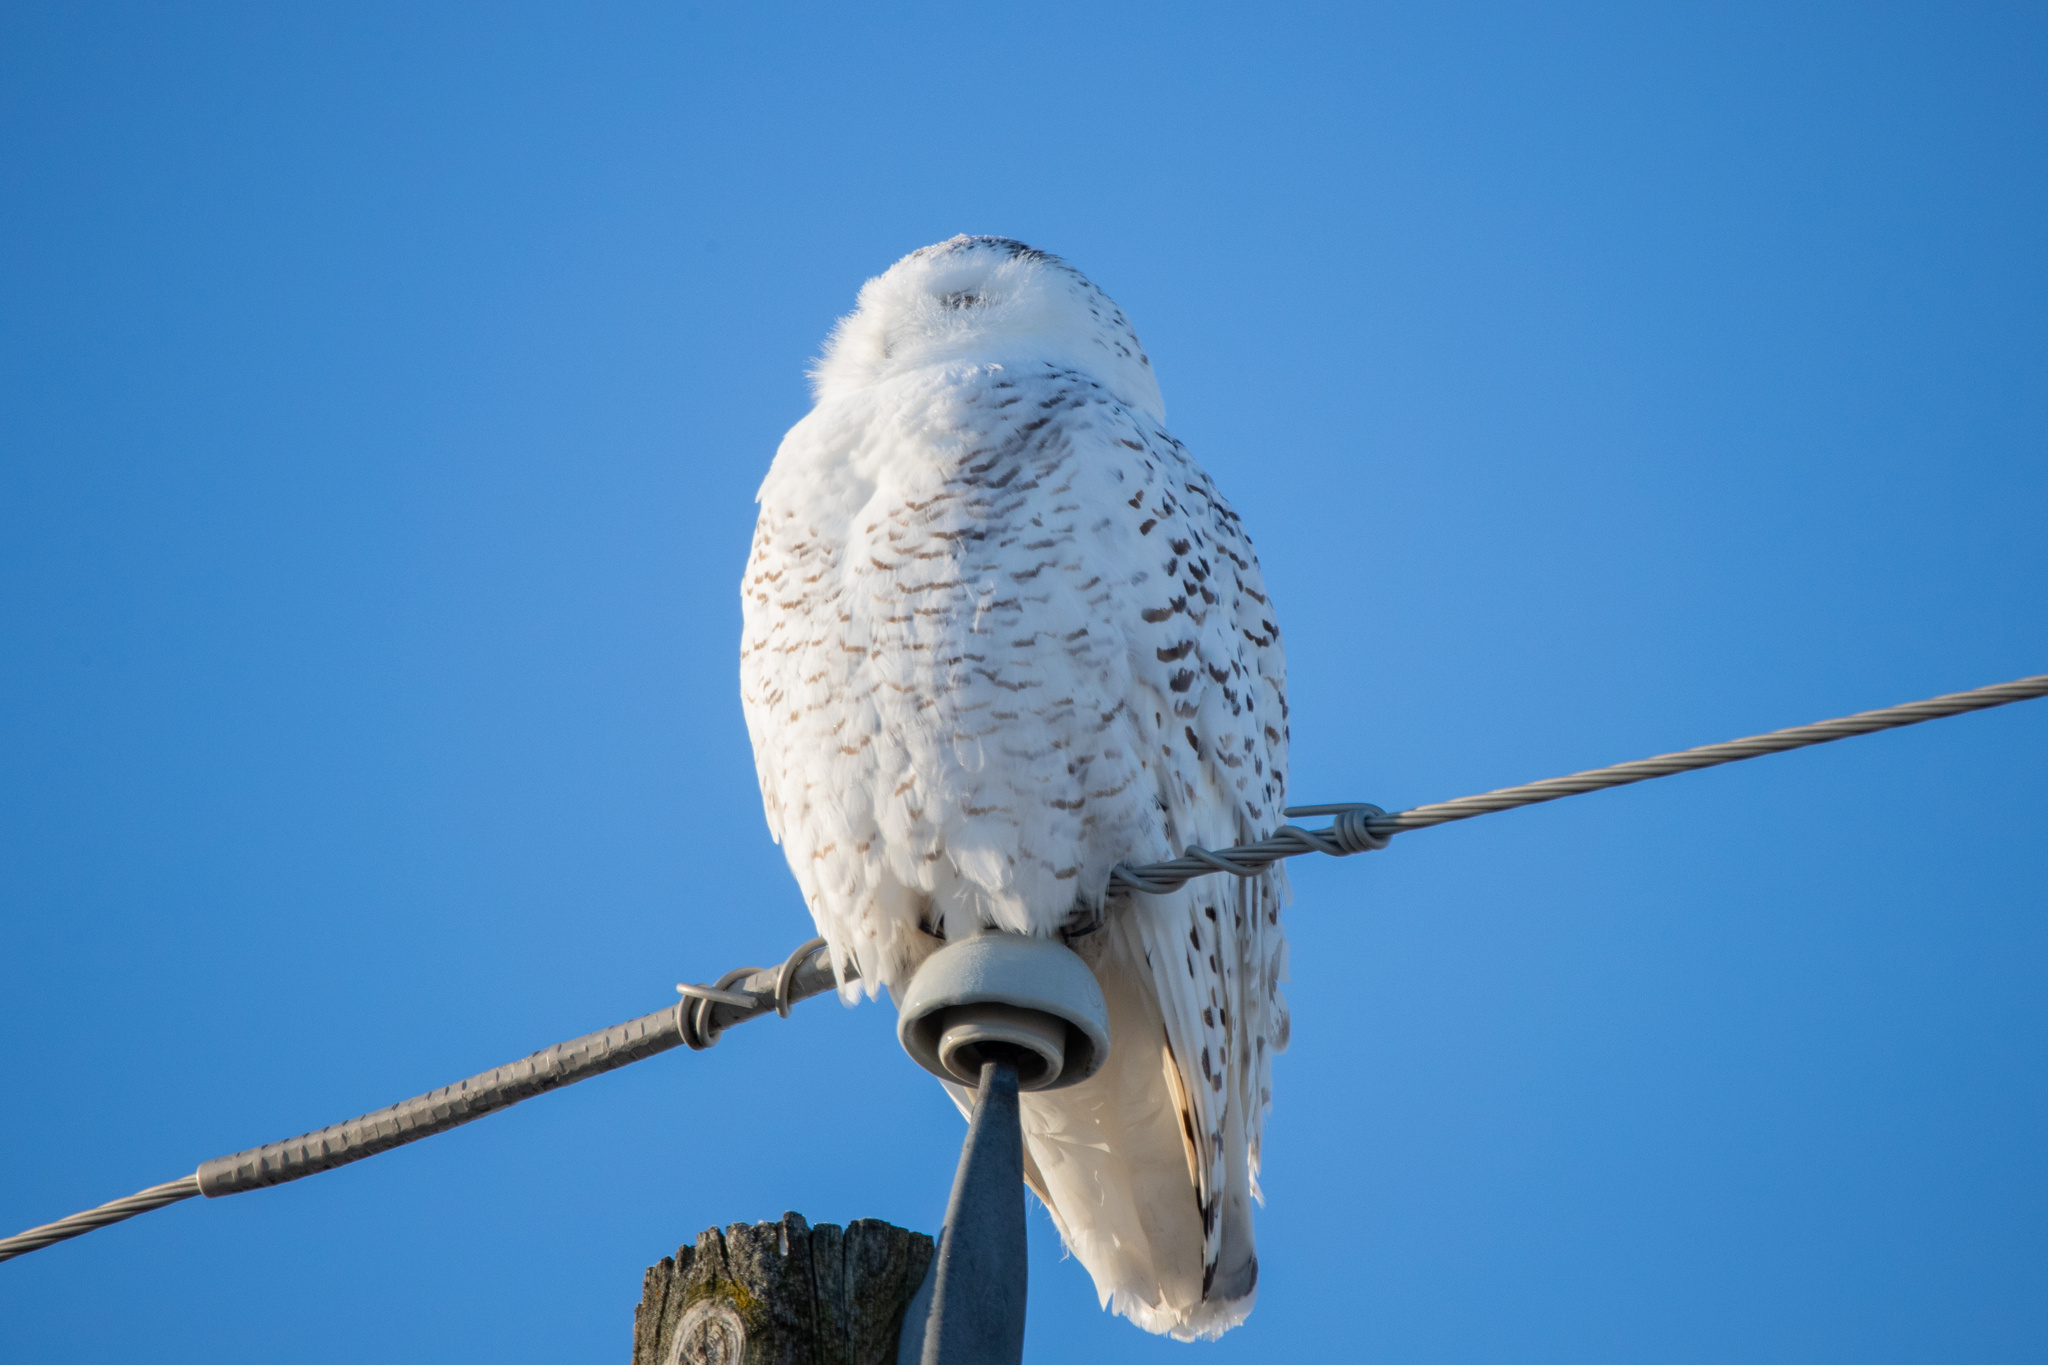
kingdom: Animalia
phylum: Chordata
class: Aves
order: Strigiformes
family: Strigidae
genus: Bubo
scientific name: Bubo scandiacus
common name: Snowy owl
